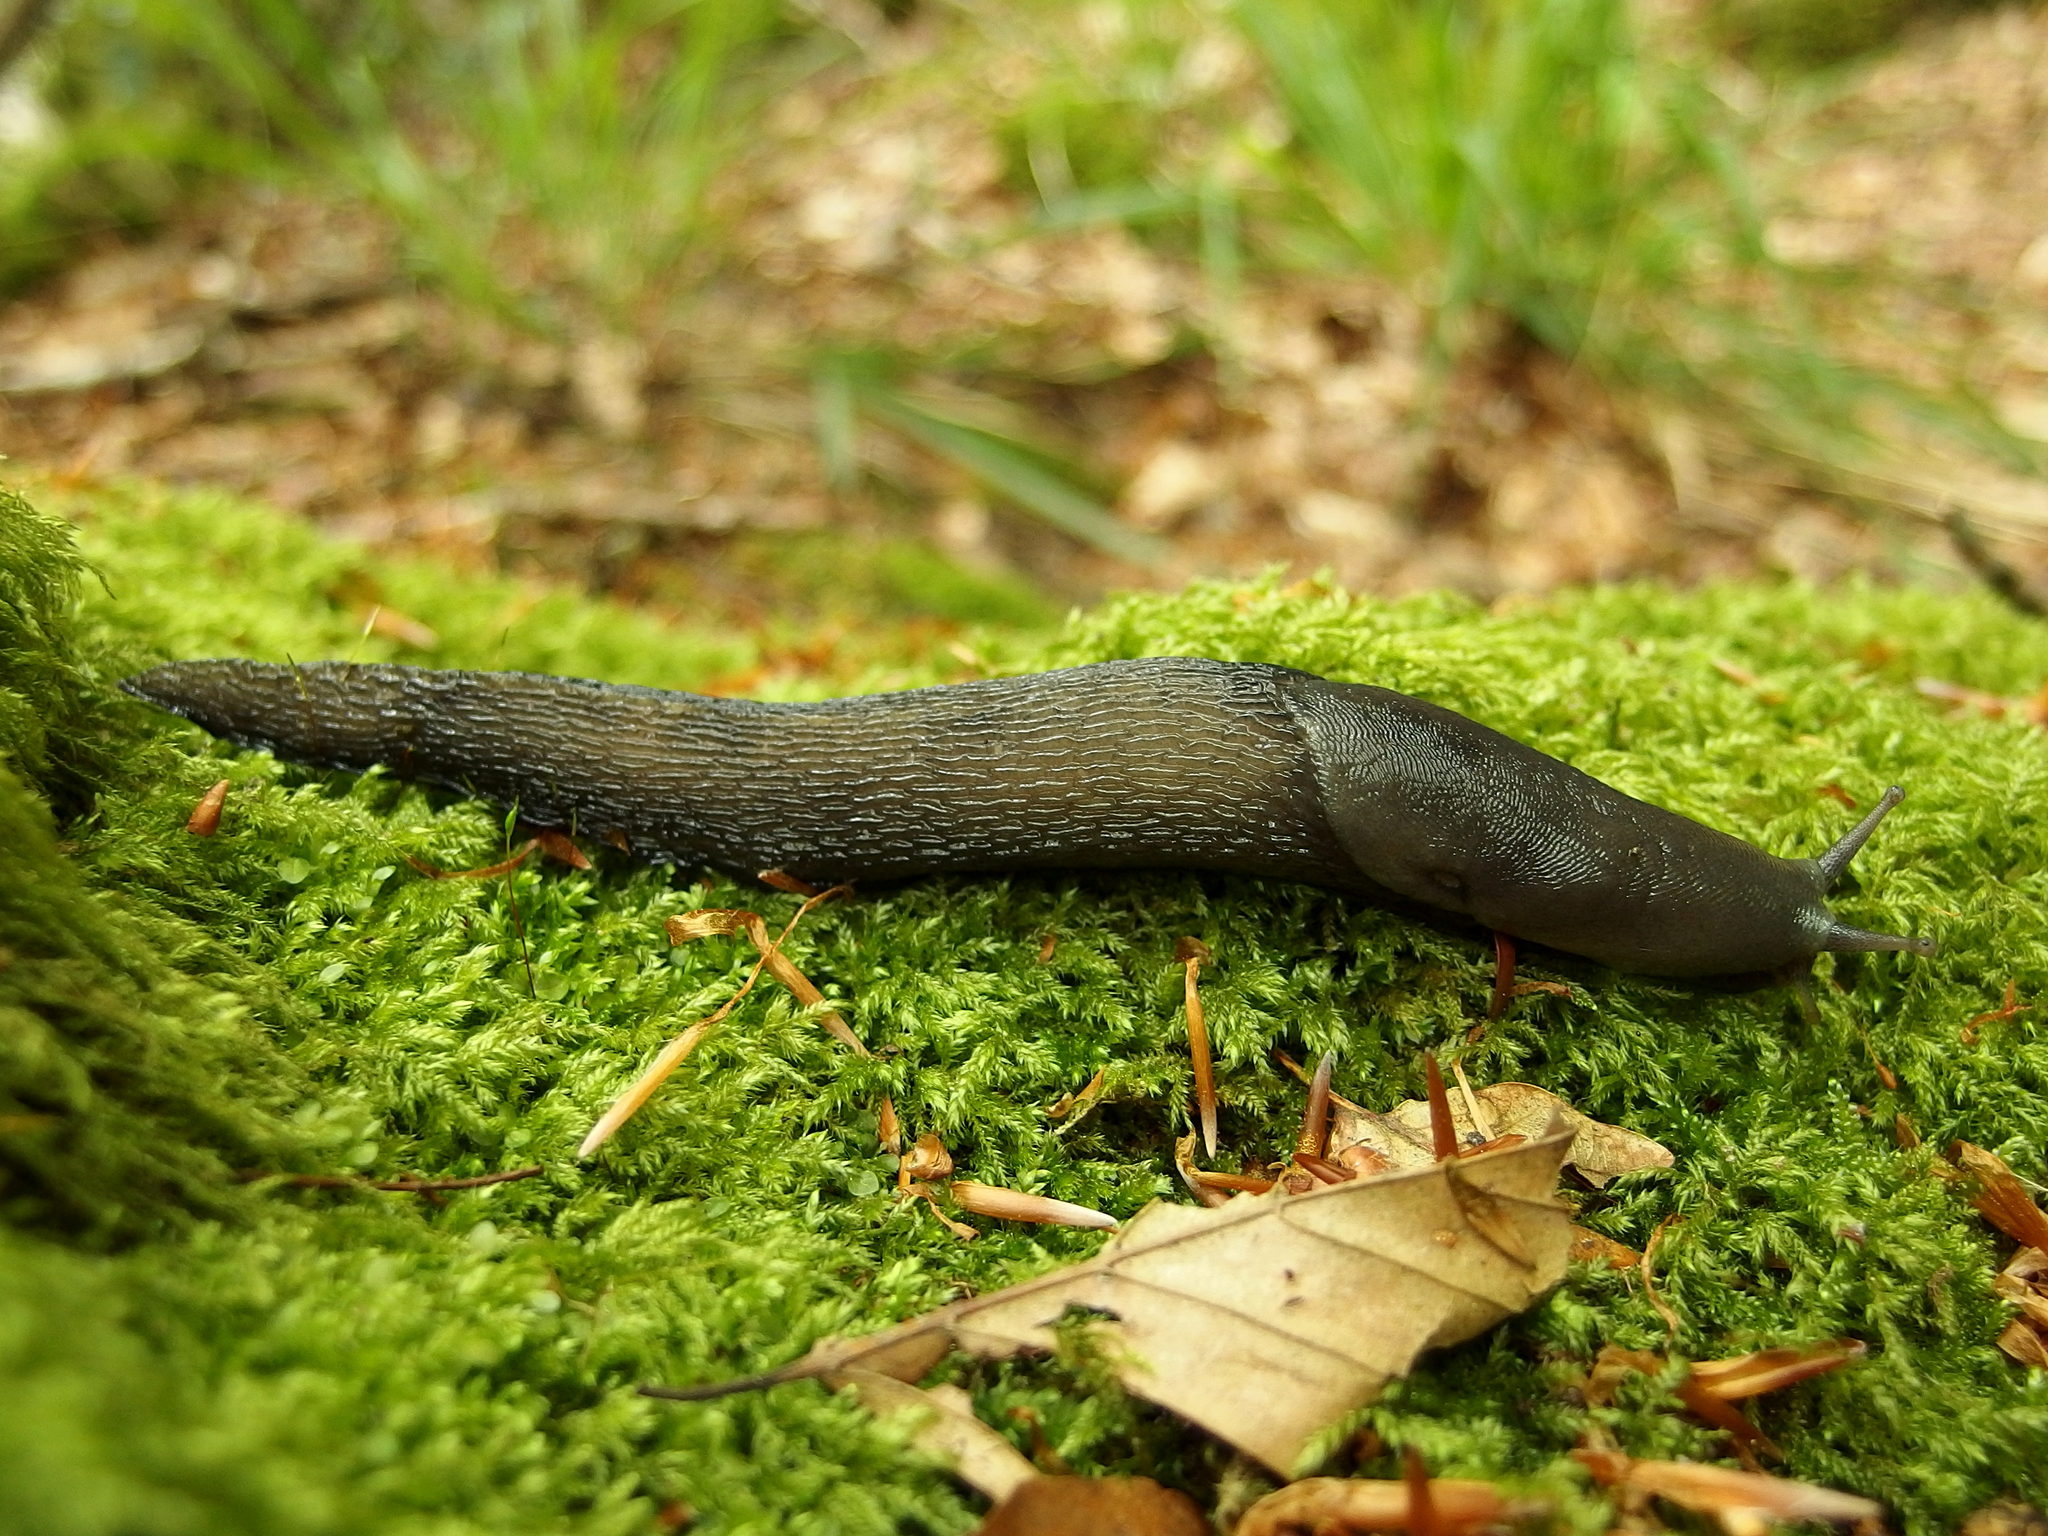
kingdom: Animalia
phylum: Mollusca
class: Gastropoda
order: Stylommatophora
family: Limacidae
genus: Limax
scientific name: Limax cinereoniger
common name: Ash-black slug
